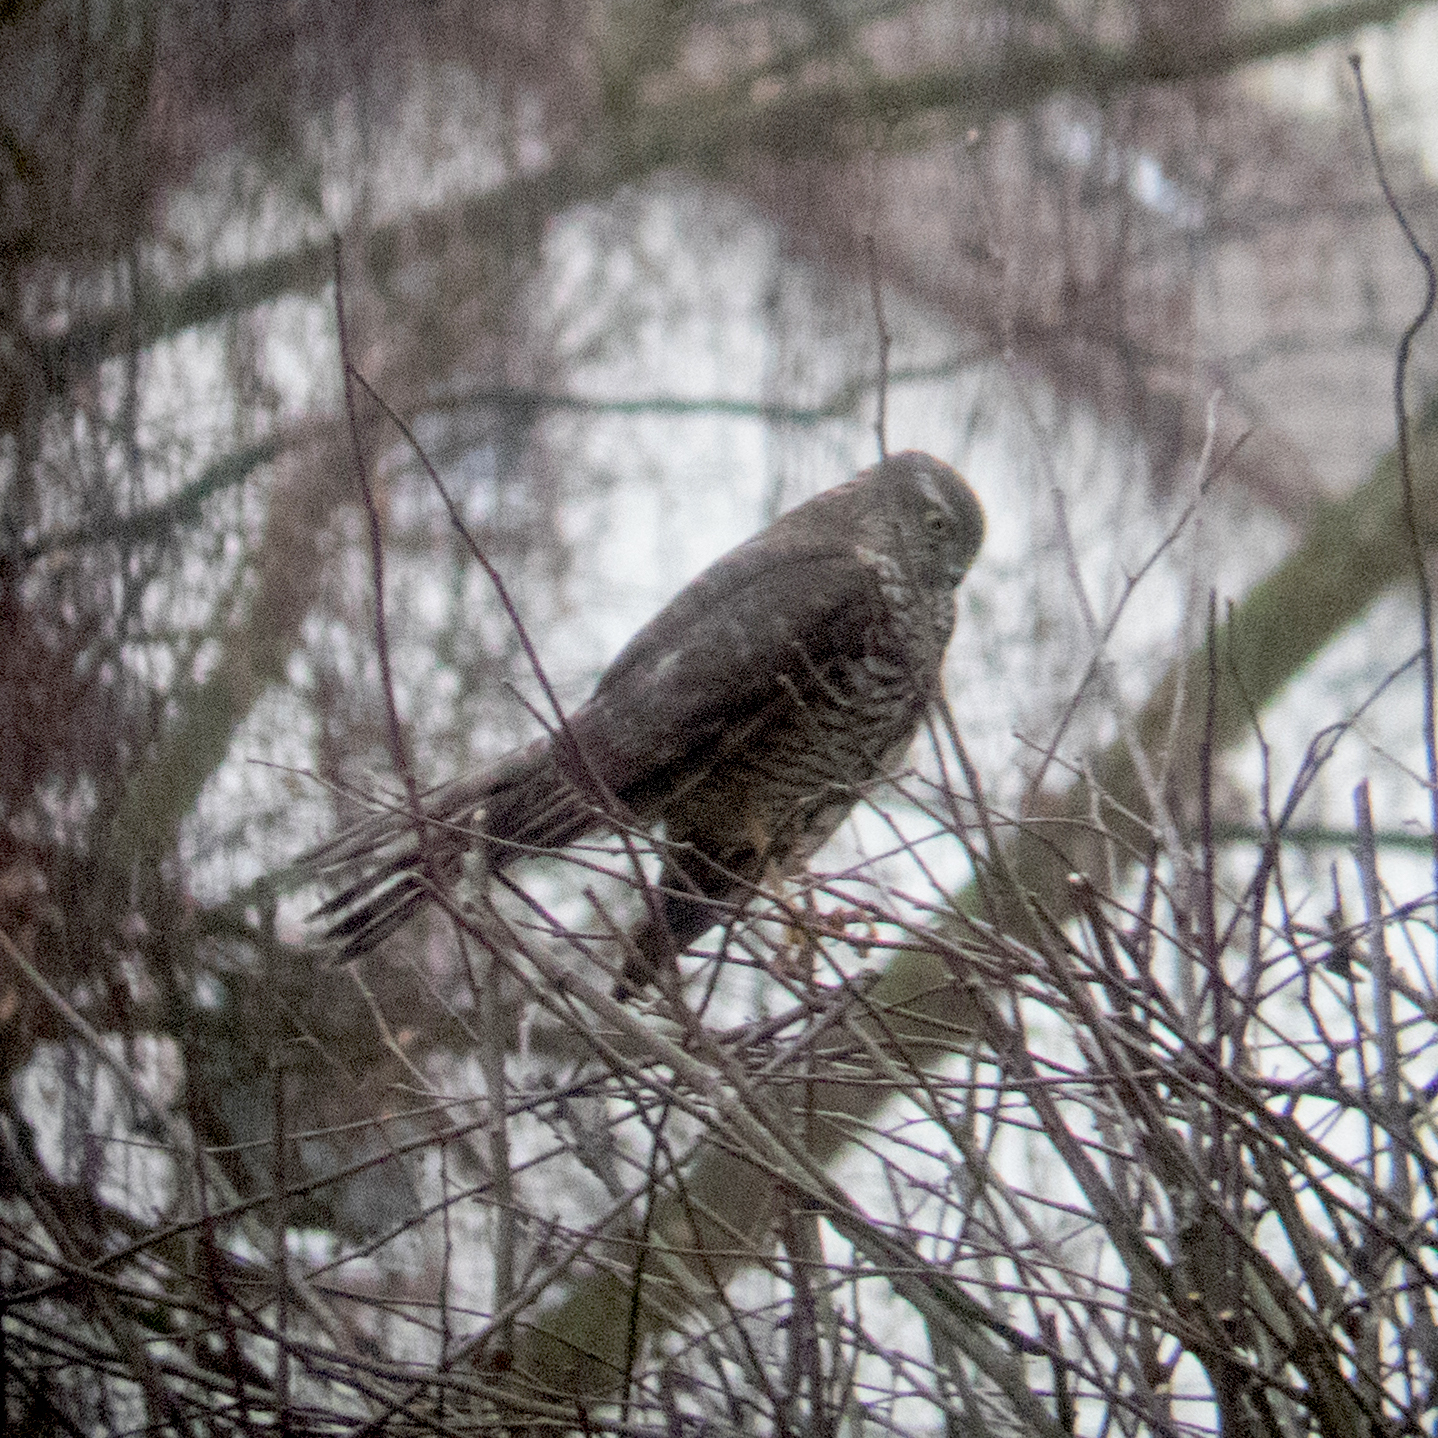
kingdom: Animalia
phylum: Chordata
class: Aves
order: Accipitriformes
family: Accipitridae
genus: Accipiter
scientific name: Accipiter nisus
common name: Eurasian sparrowhawk
